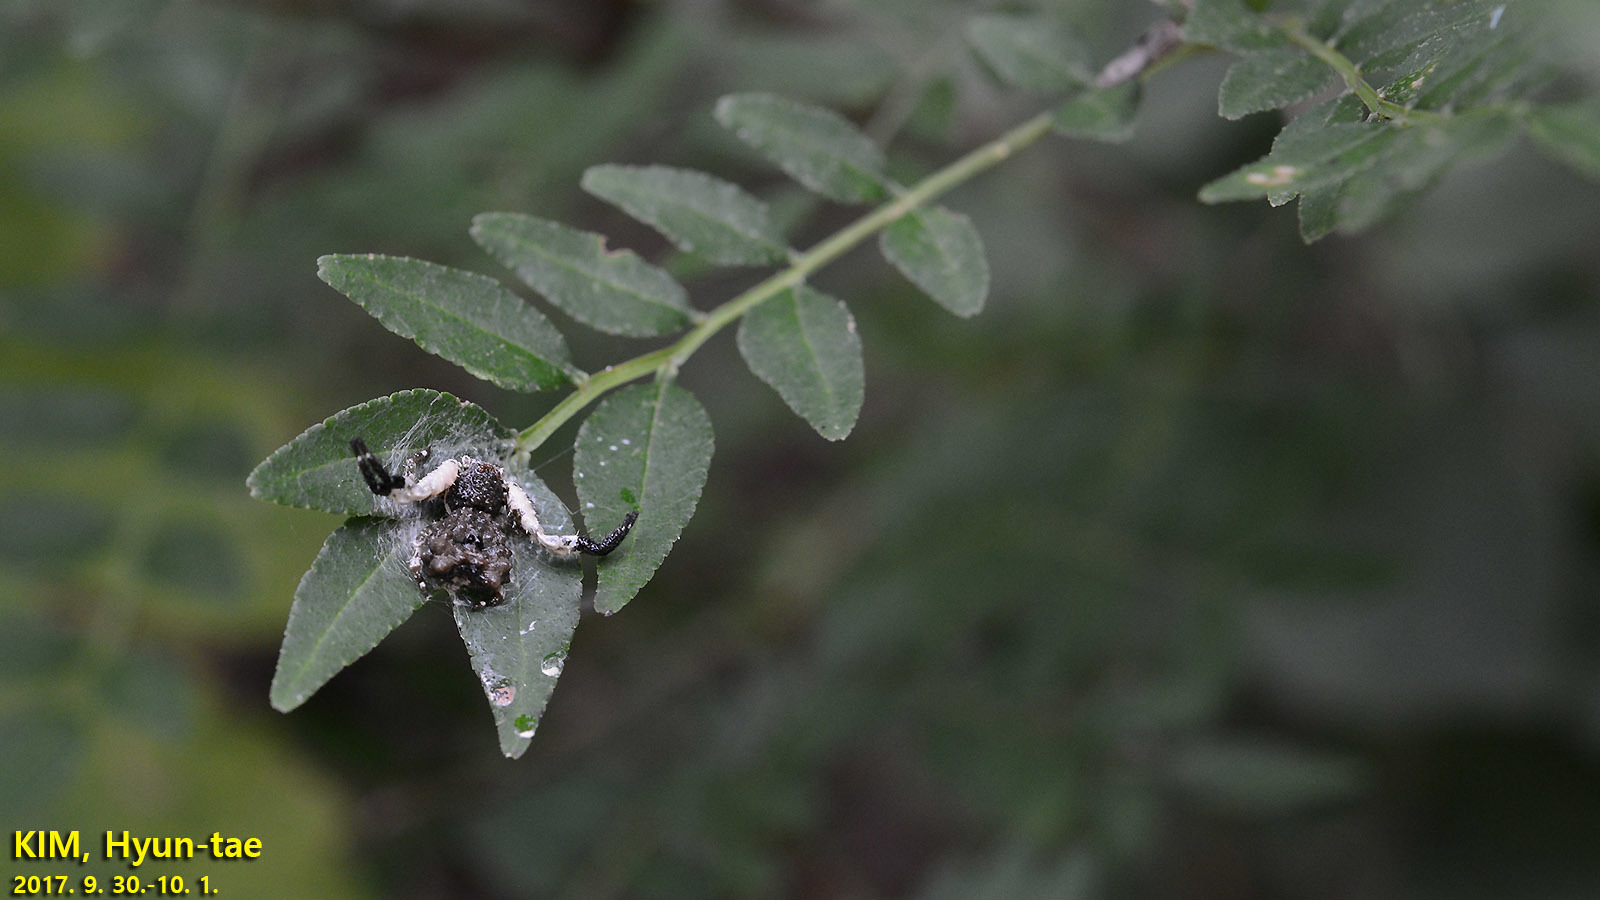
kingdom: Animalia
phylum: Arthropoda
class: Arachnida
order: Araneae
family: Thomisidae
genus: Phrynarachne
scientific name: Phrynarachne katoi
